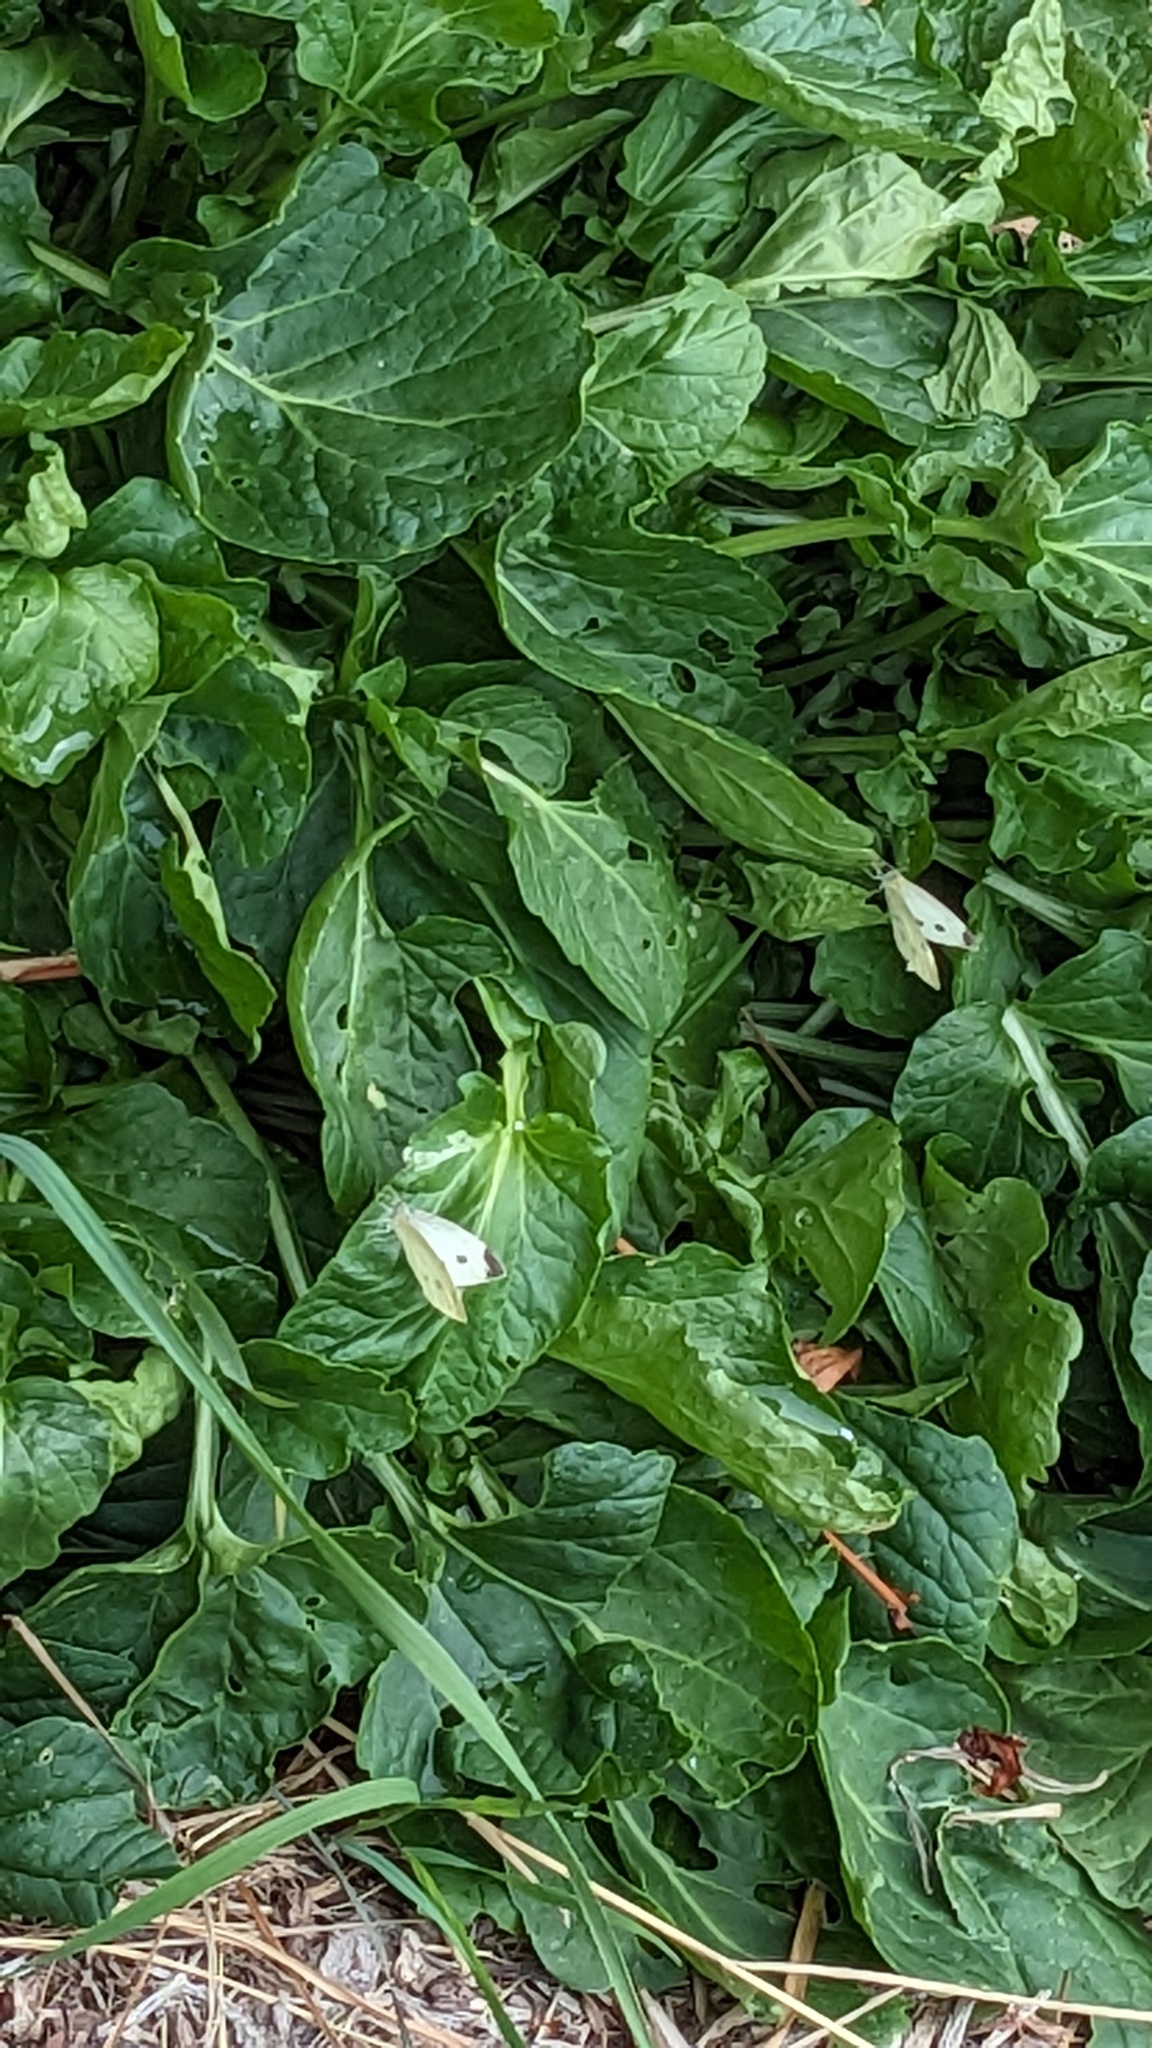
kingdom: Animalia
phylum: Arthropoda
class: Insecta
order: Lepidoptera
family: Pieridae
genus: Pieris
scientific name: Pieris rapae
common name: Small white
